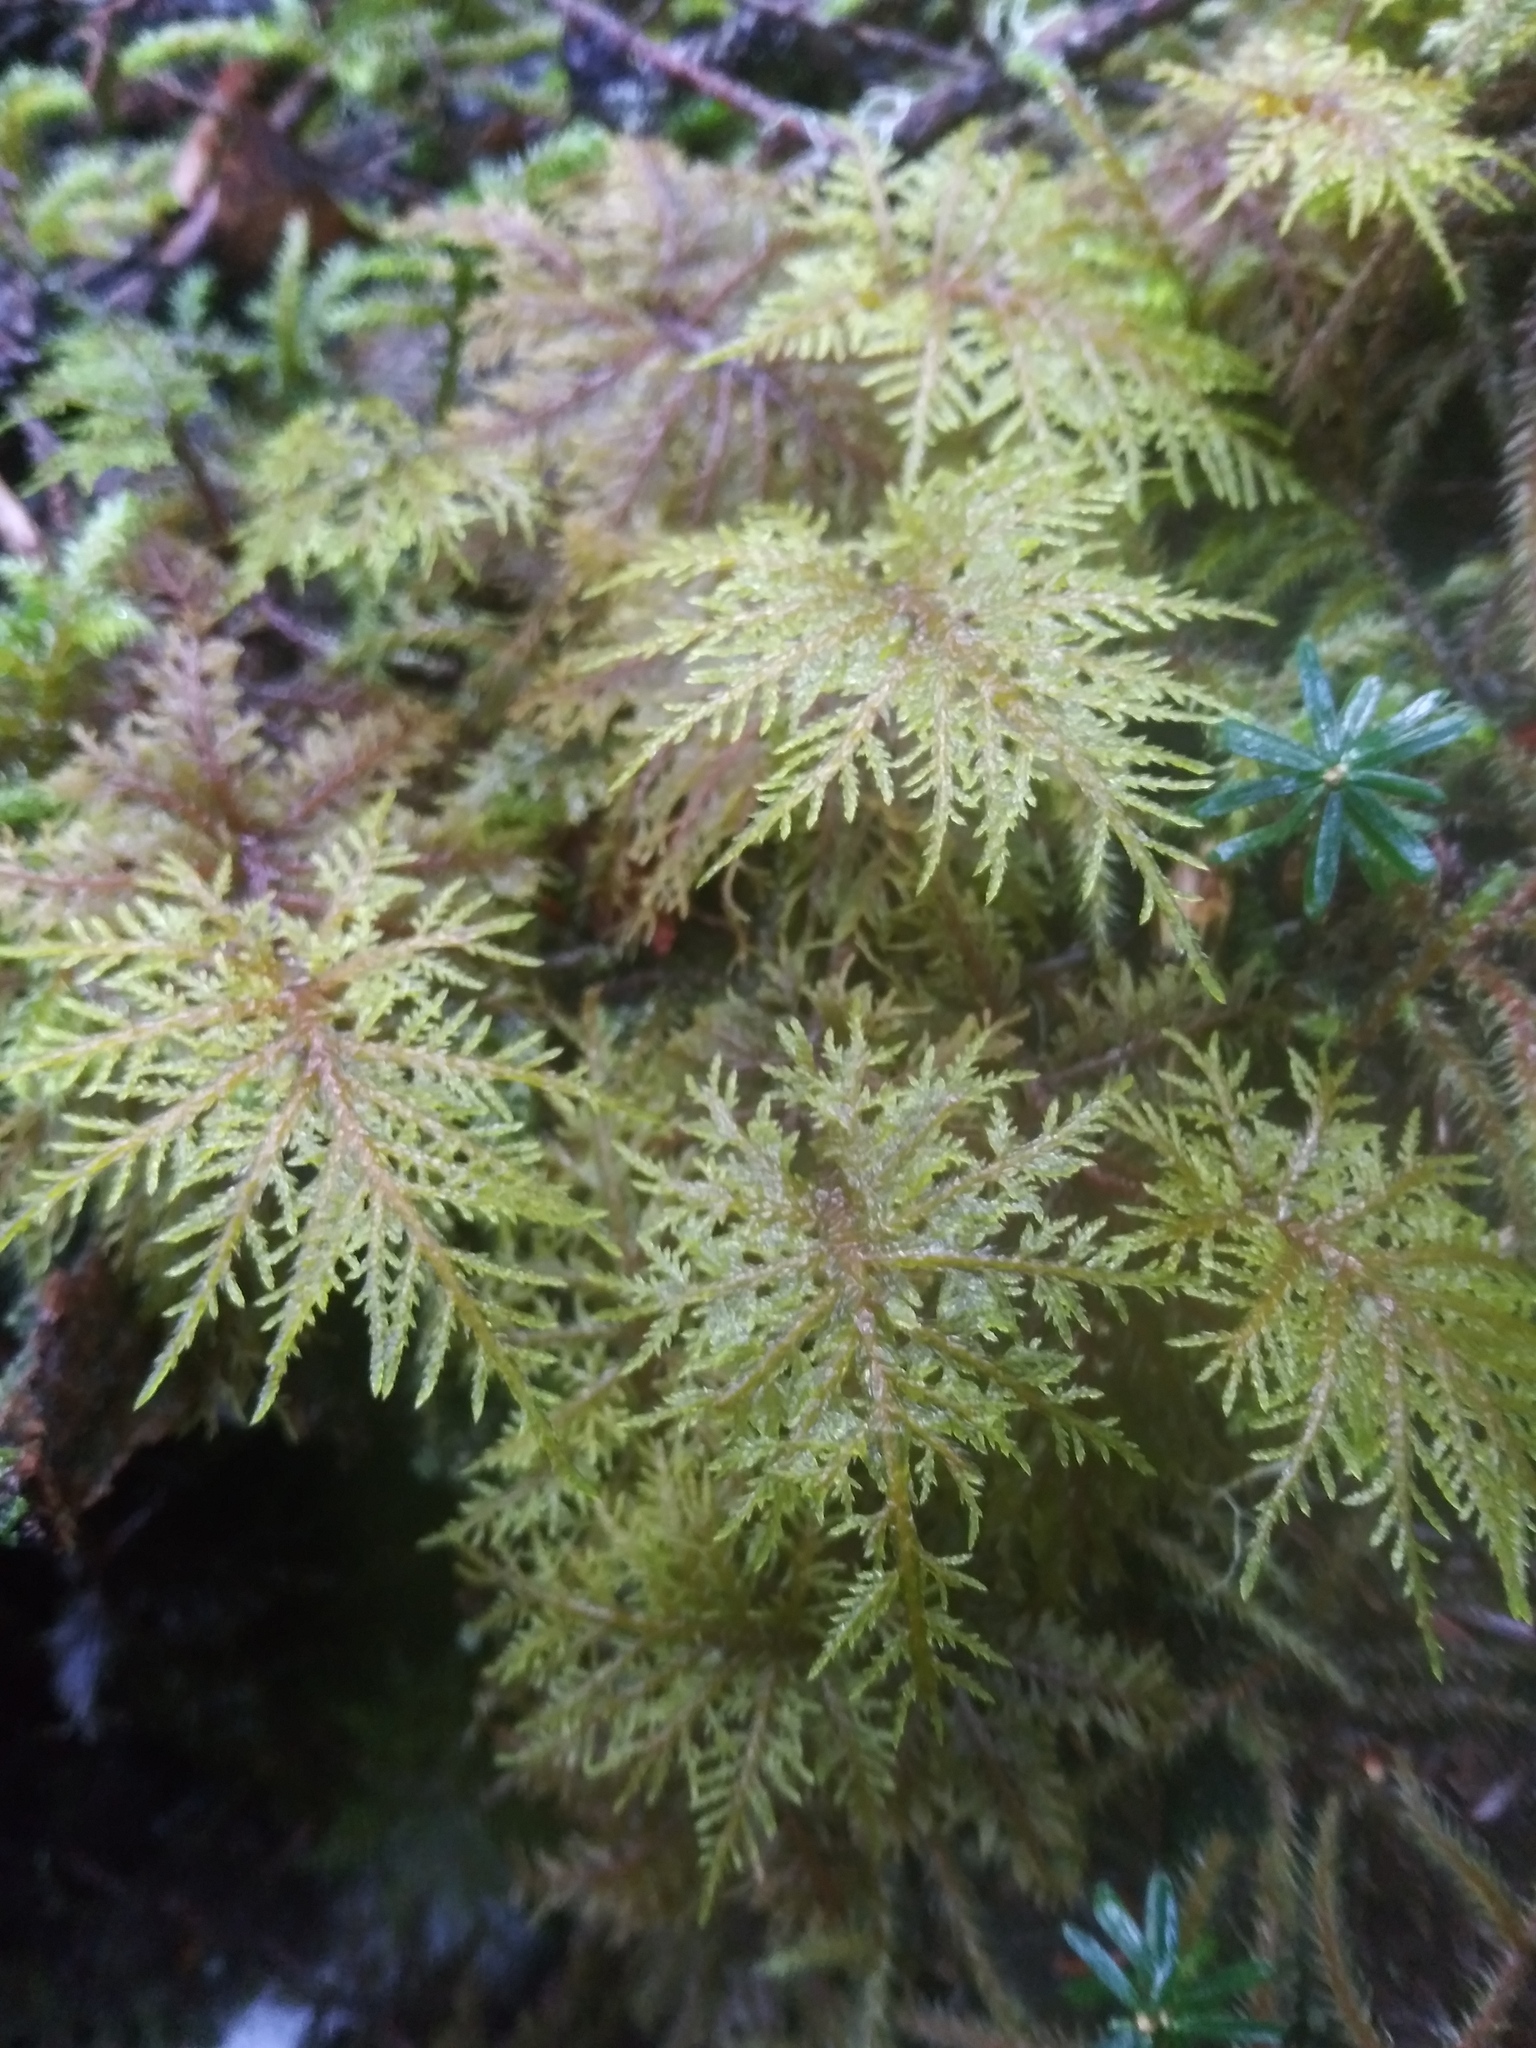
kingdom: Plantae
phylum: Bryophyta
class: Bryopsida
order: Hypnales
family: Hylocomiaceae
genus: Hylocomium
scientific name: Hylocomium splendens
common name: Stairstep moss
